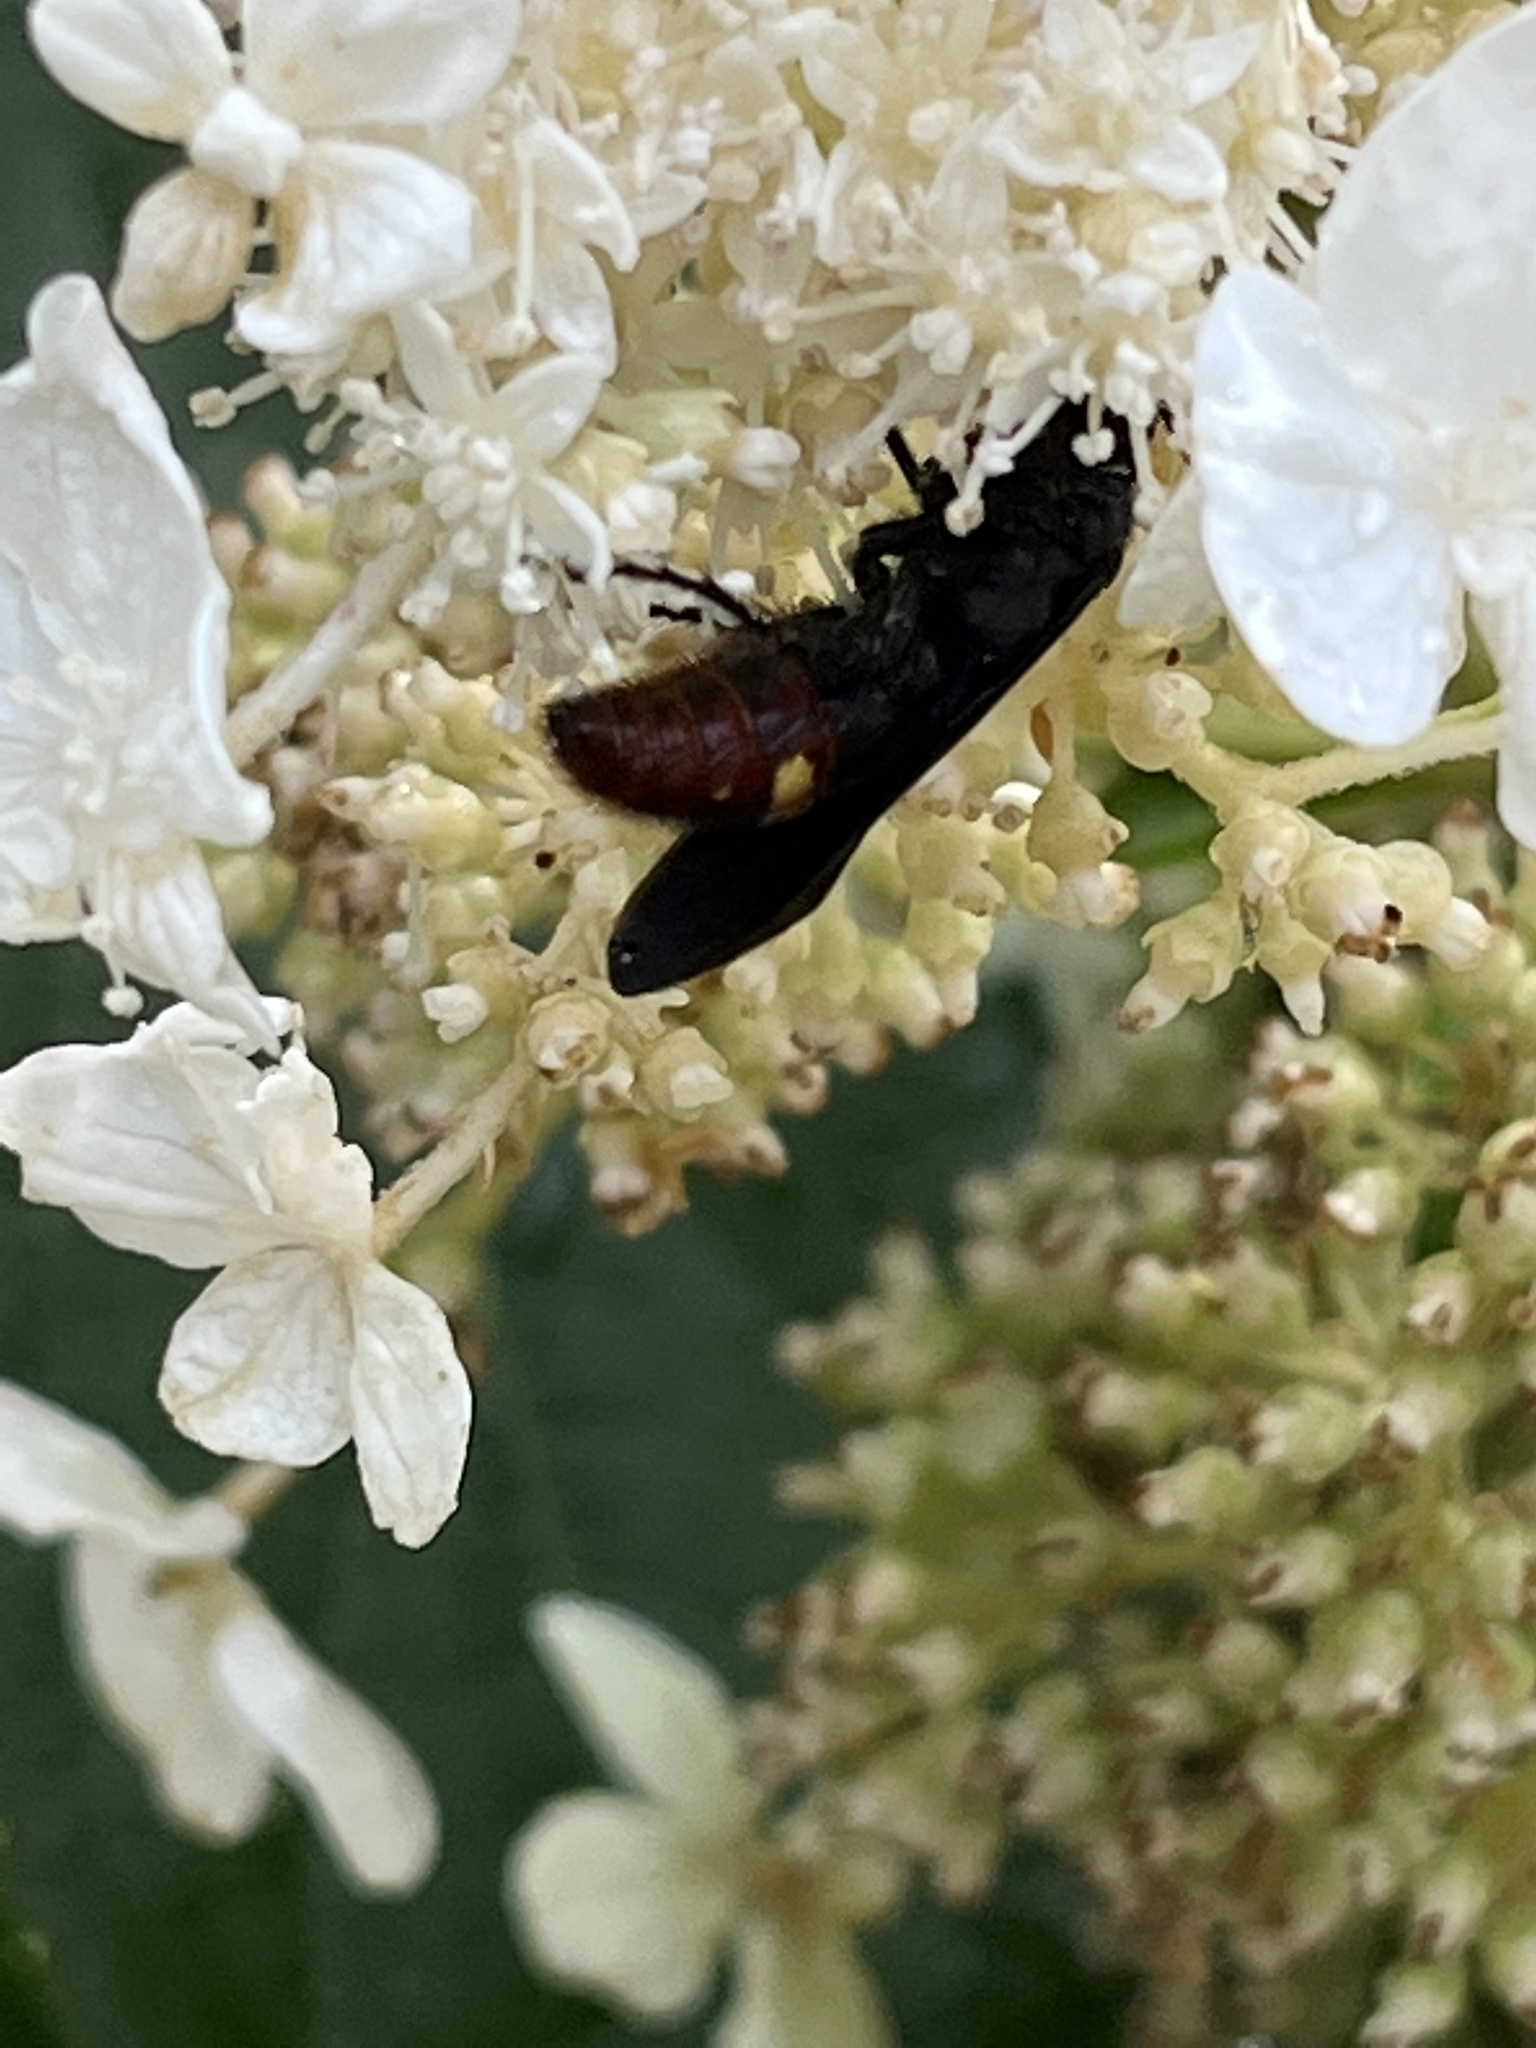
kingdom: Animalia
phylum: Arthropoda
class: Insecta
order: Hymenoptera
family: Scoliidae
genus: Scolia
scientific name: Scolia dubia
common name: Blue-winged scoliid wasp
